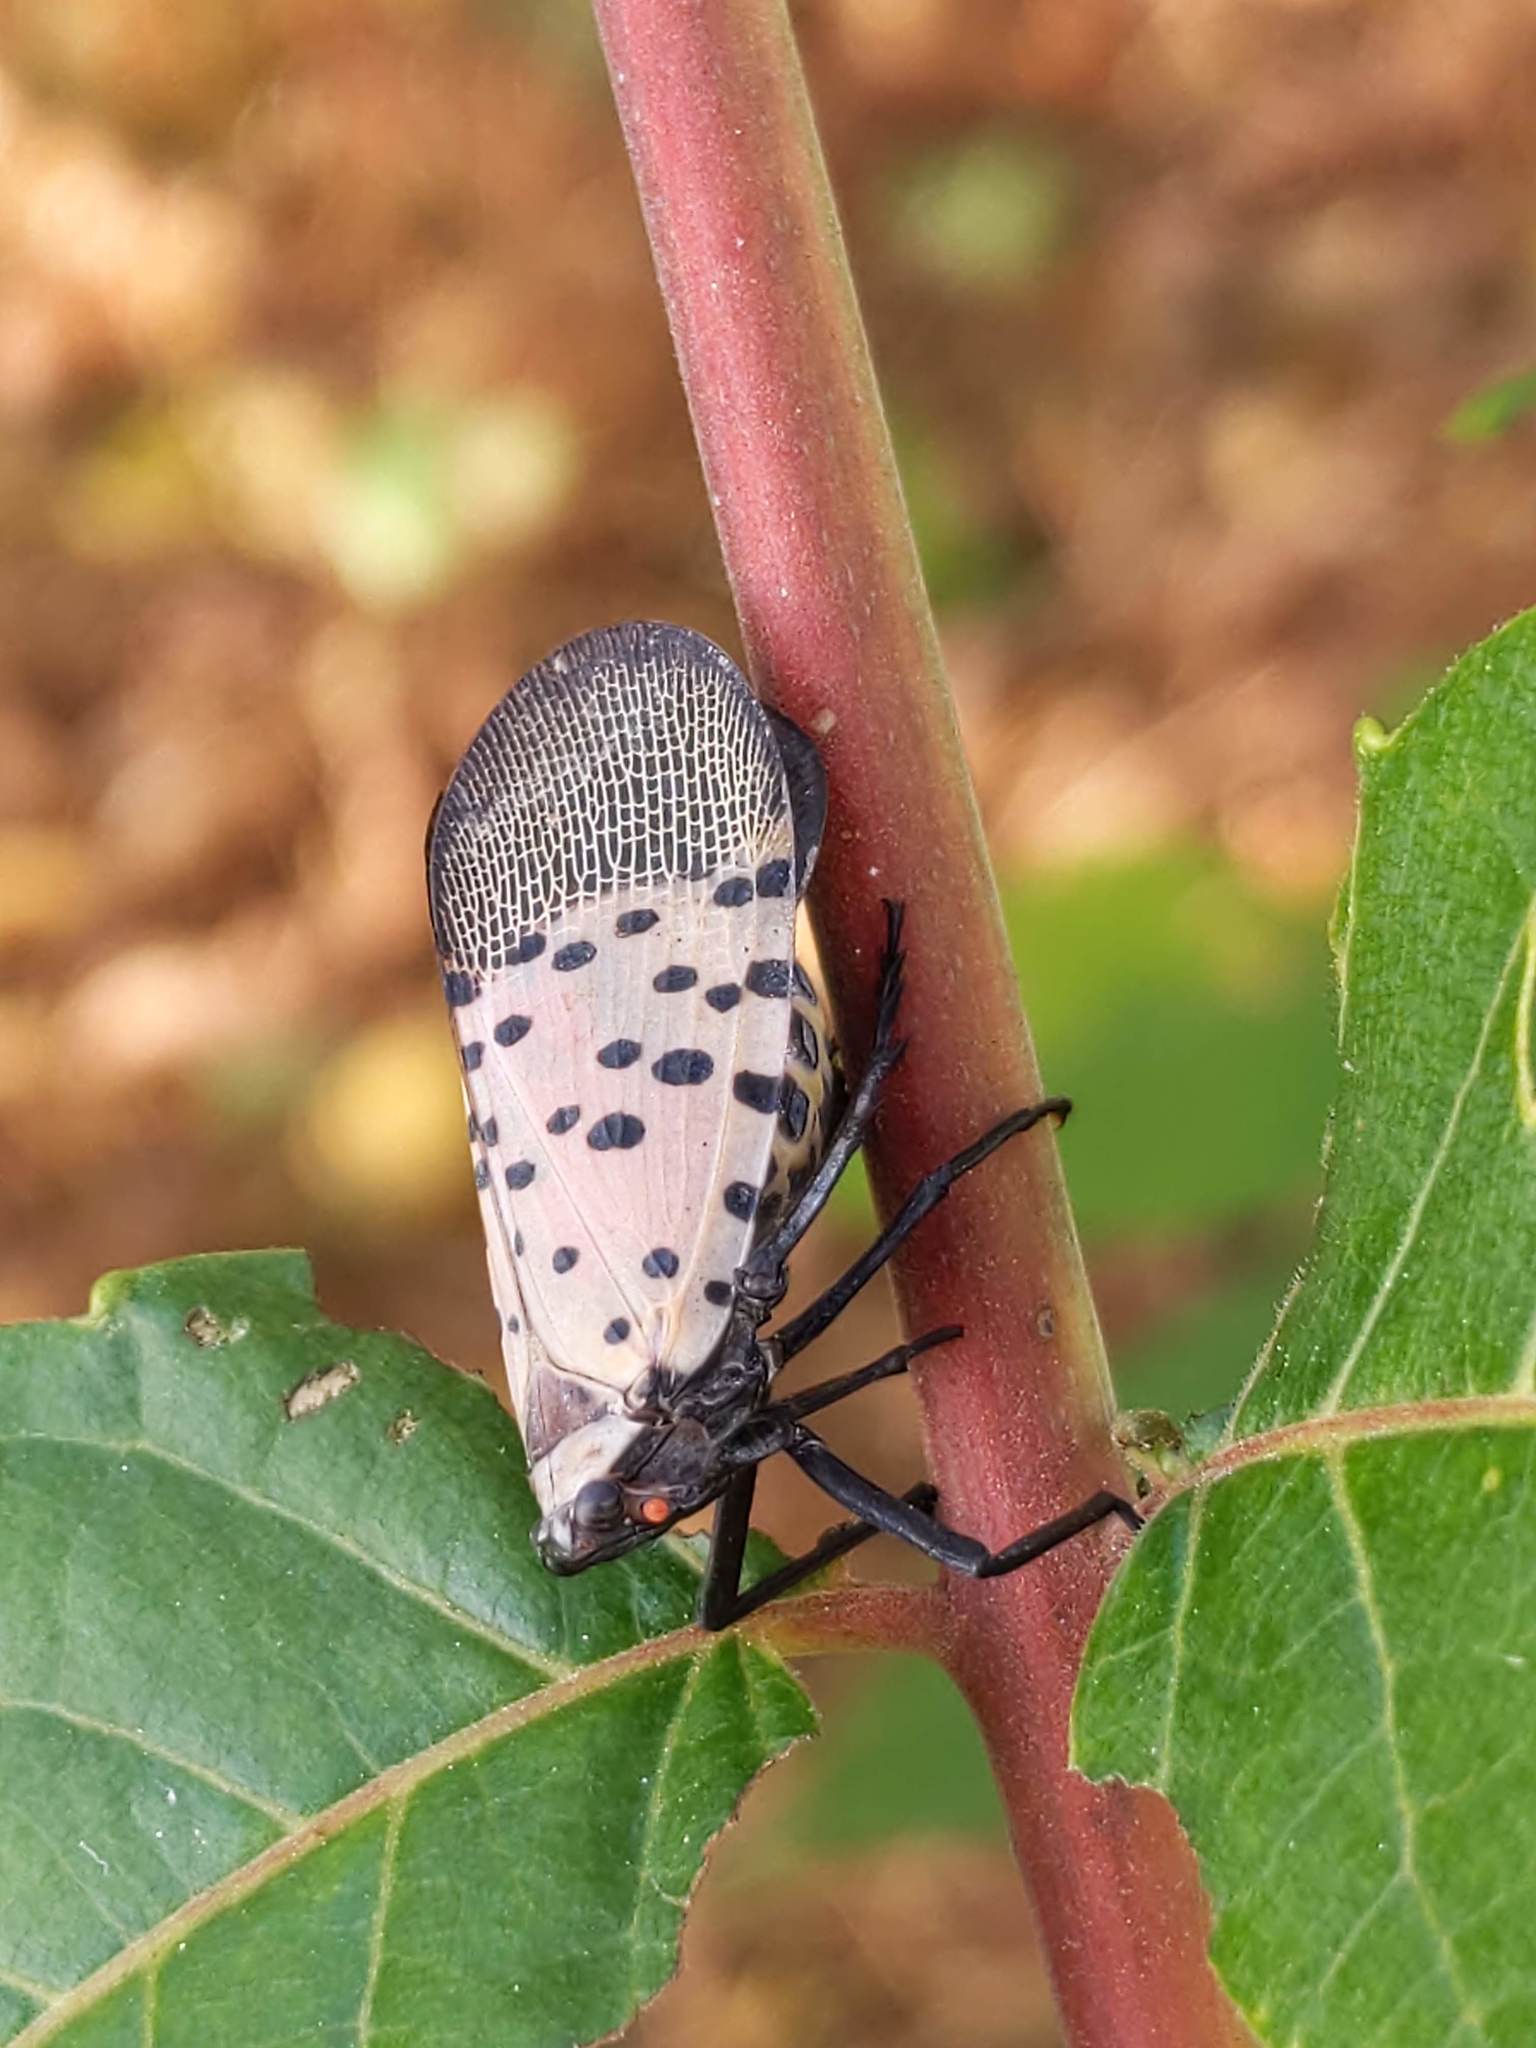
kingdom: Animalia
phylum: Arthropoda
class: Insecta
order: Hemiptera
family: Fulgoridae
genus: Lycorma
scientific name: Lycorma delicatula
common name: Spotted lanternfly
